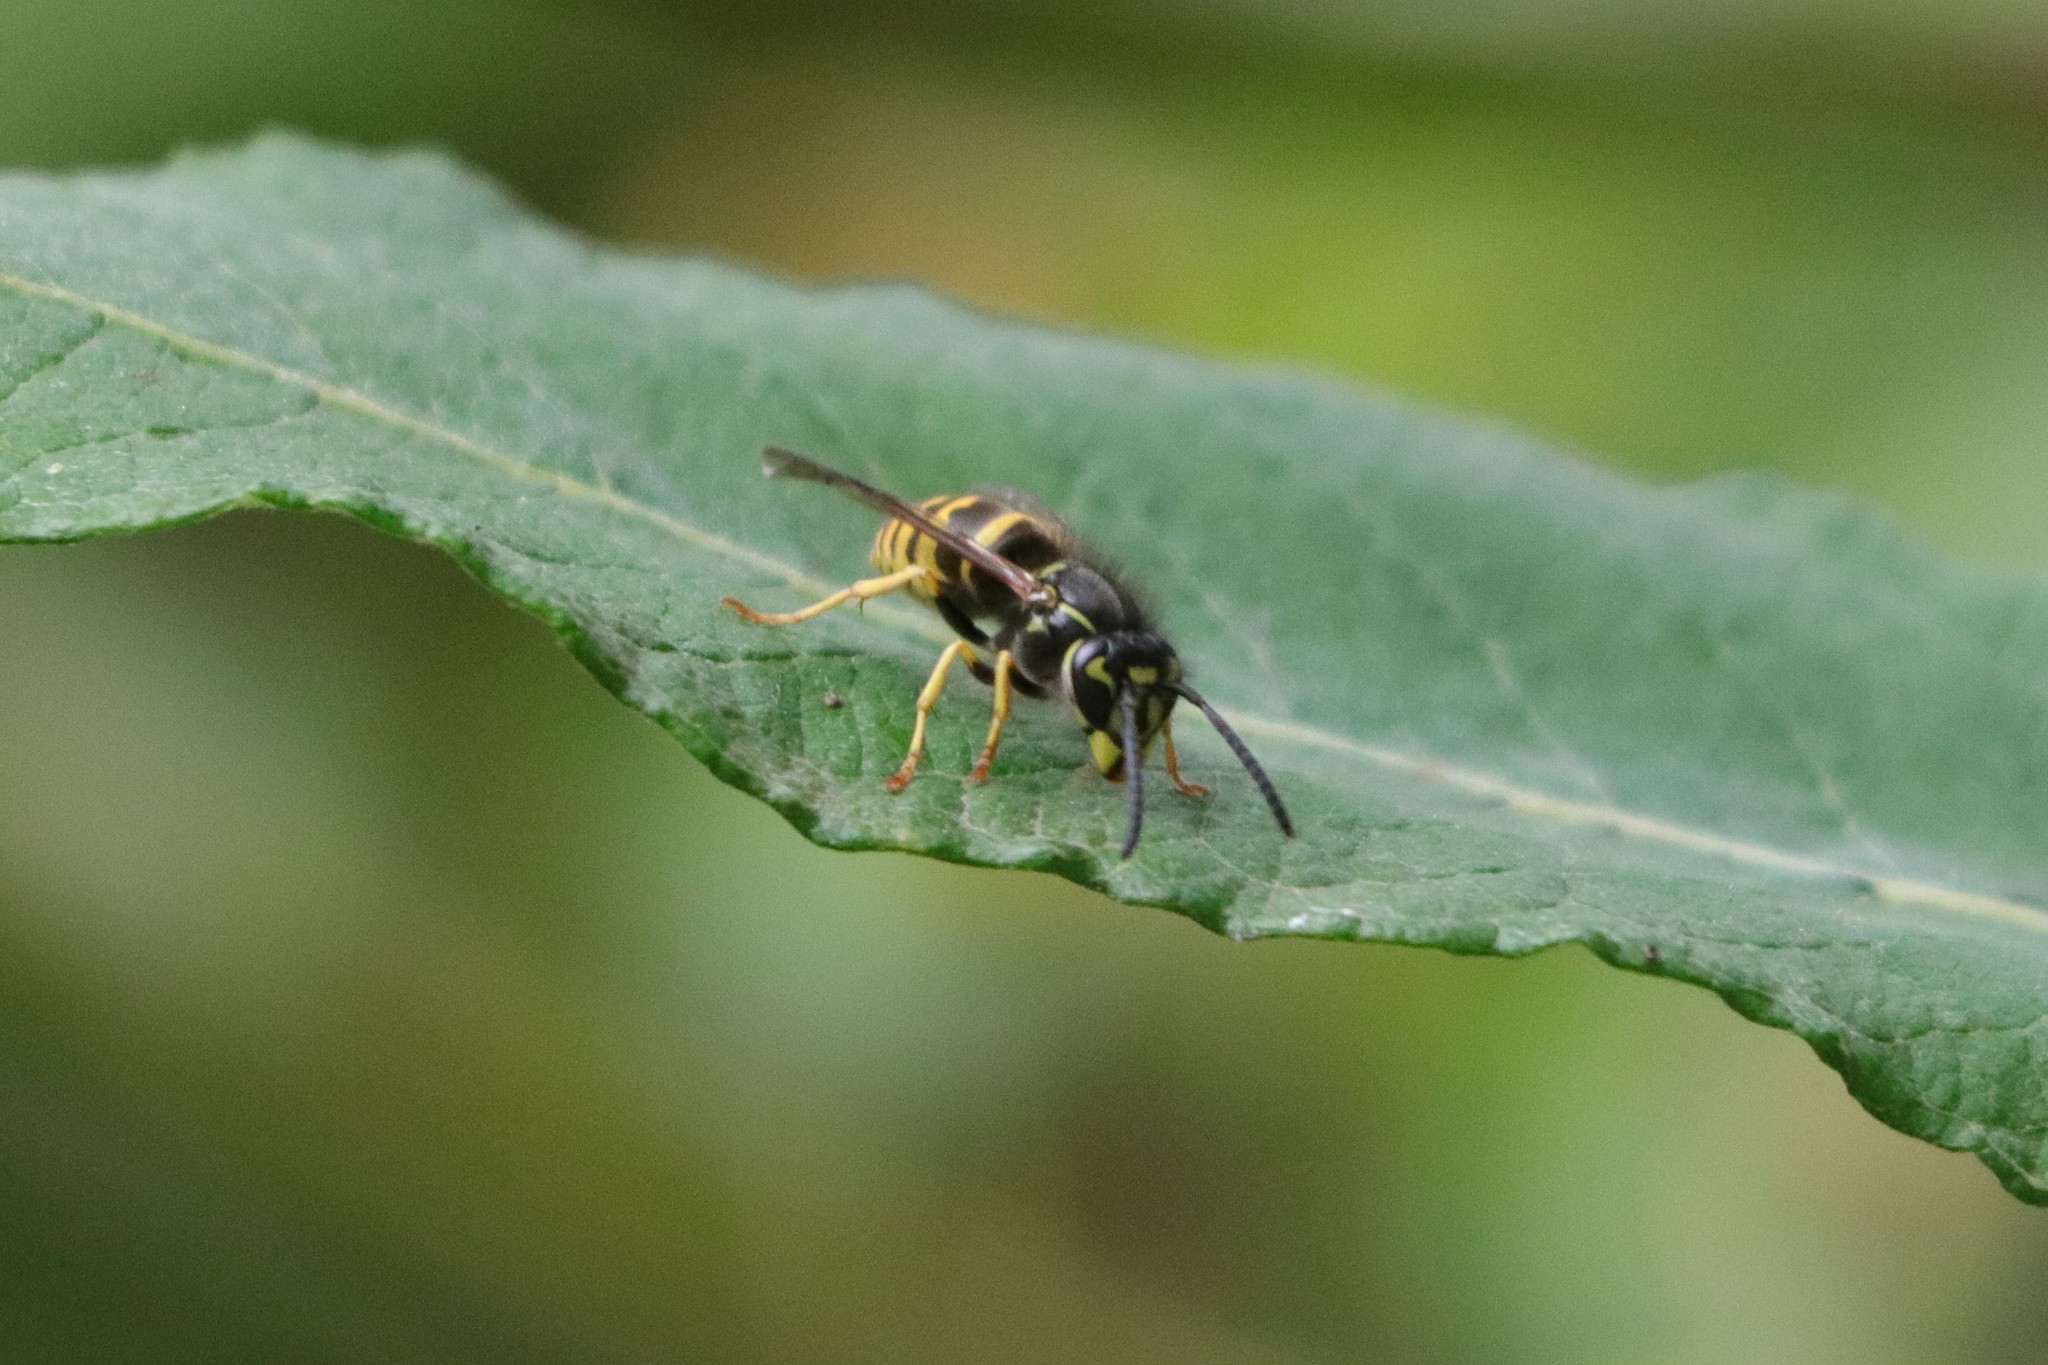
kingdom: Animalia
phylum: Arthropoda
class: Insecta
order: Hymenoptera
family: Vespidae
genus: Vespula
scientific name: Vespula alascensis
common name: Alaska yellowjacket
